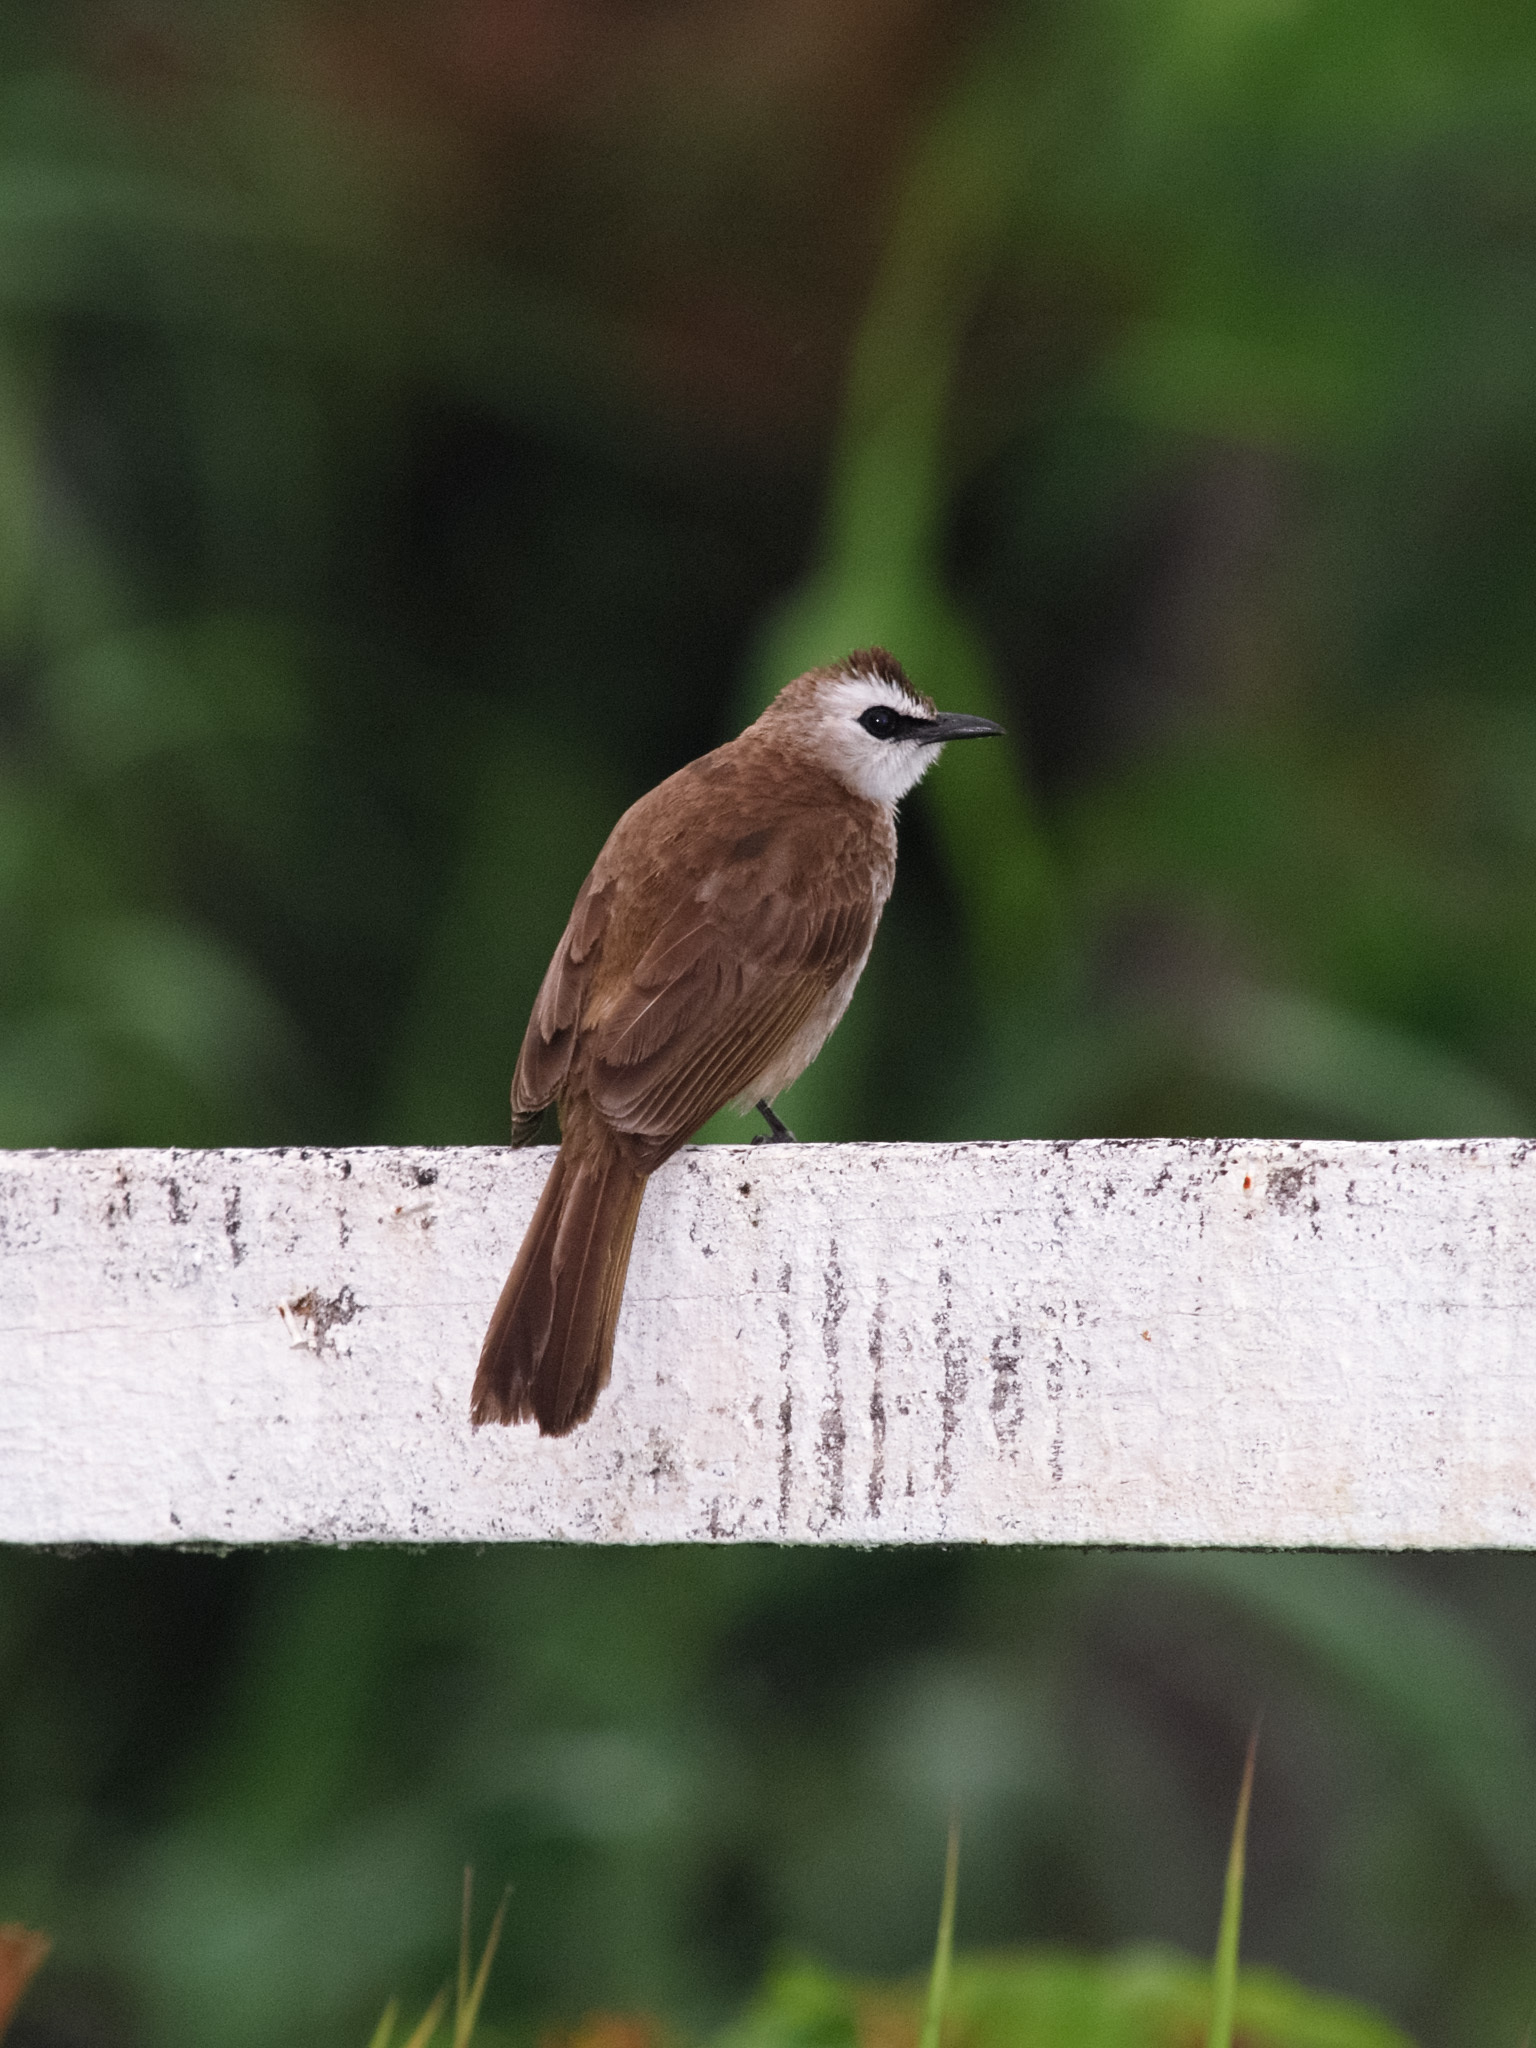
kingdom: Animalia
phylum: Chordata
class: Aves
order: Passeriformes
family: Pycnonotidae
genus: Pycnonotus
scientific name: Pycnonotus goiavier
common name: Yellow-vented bulbul
